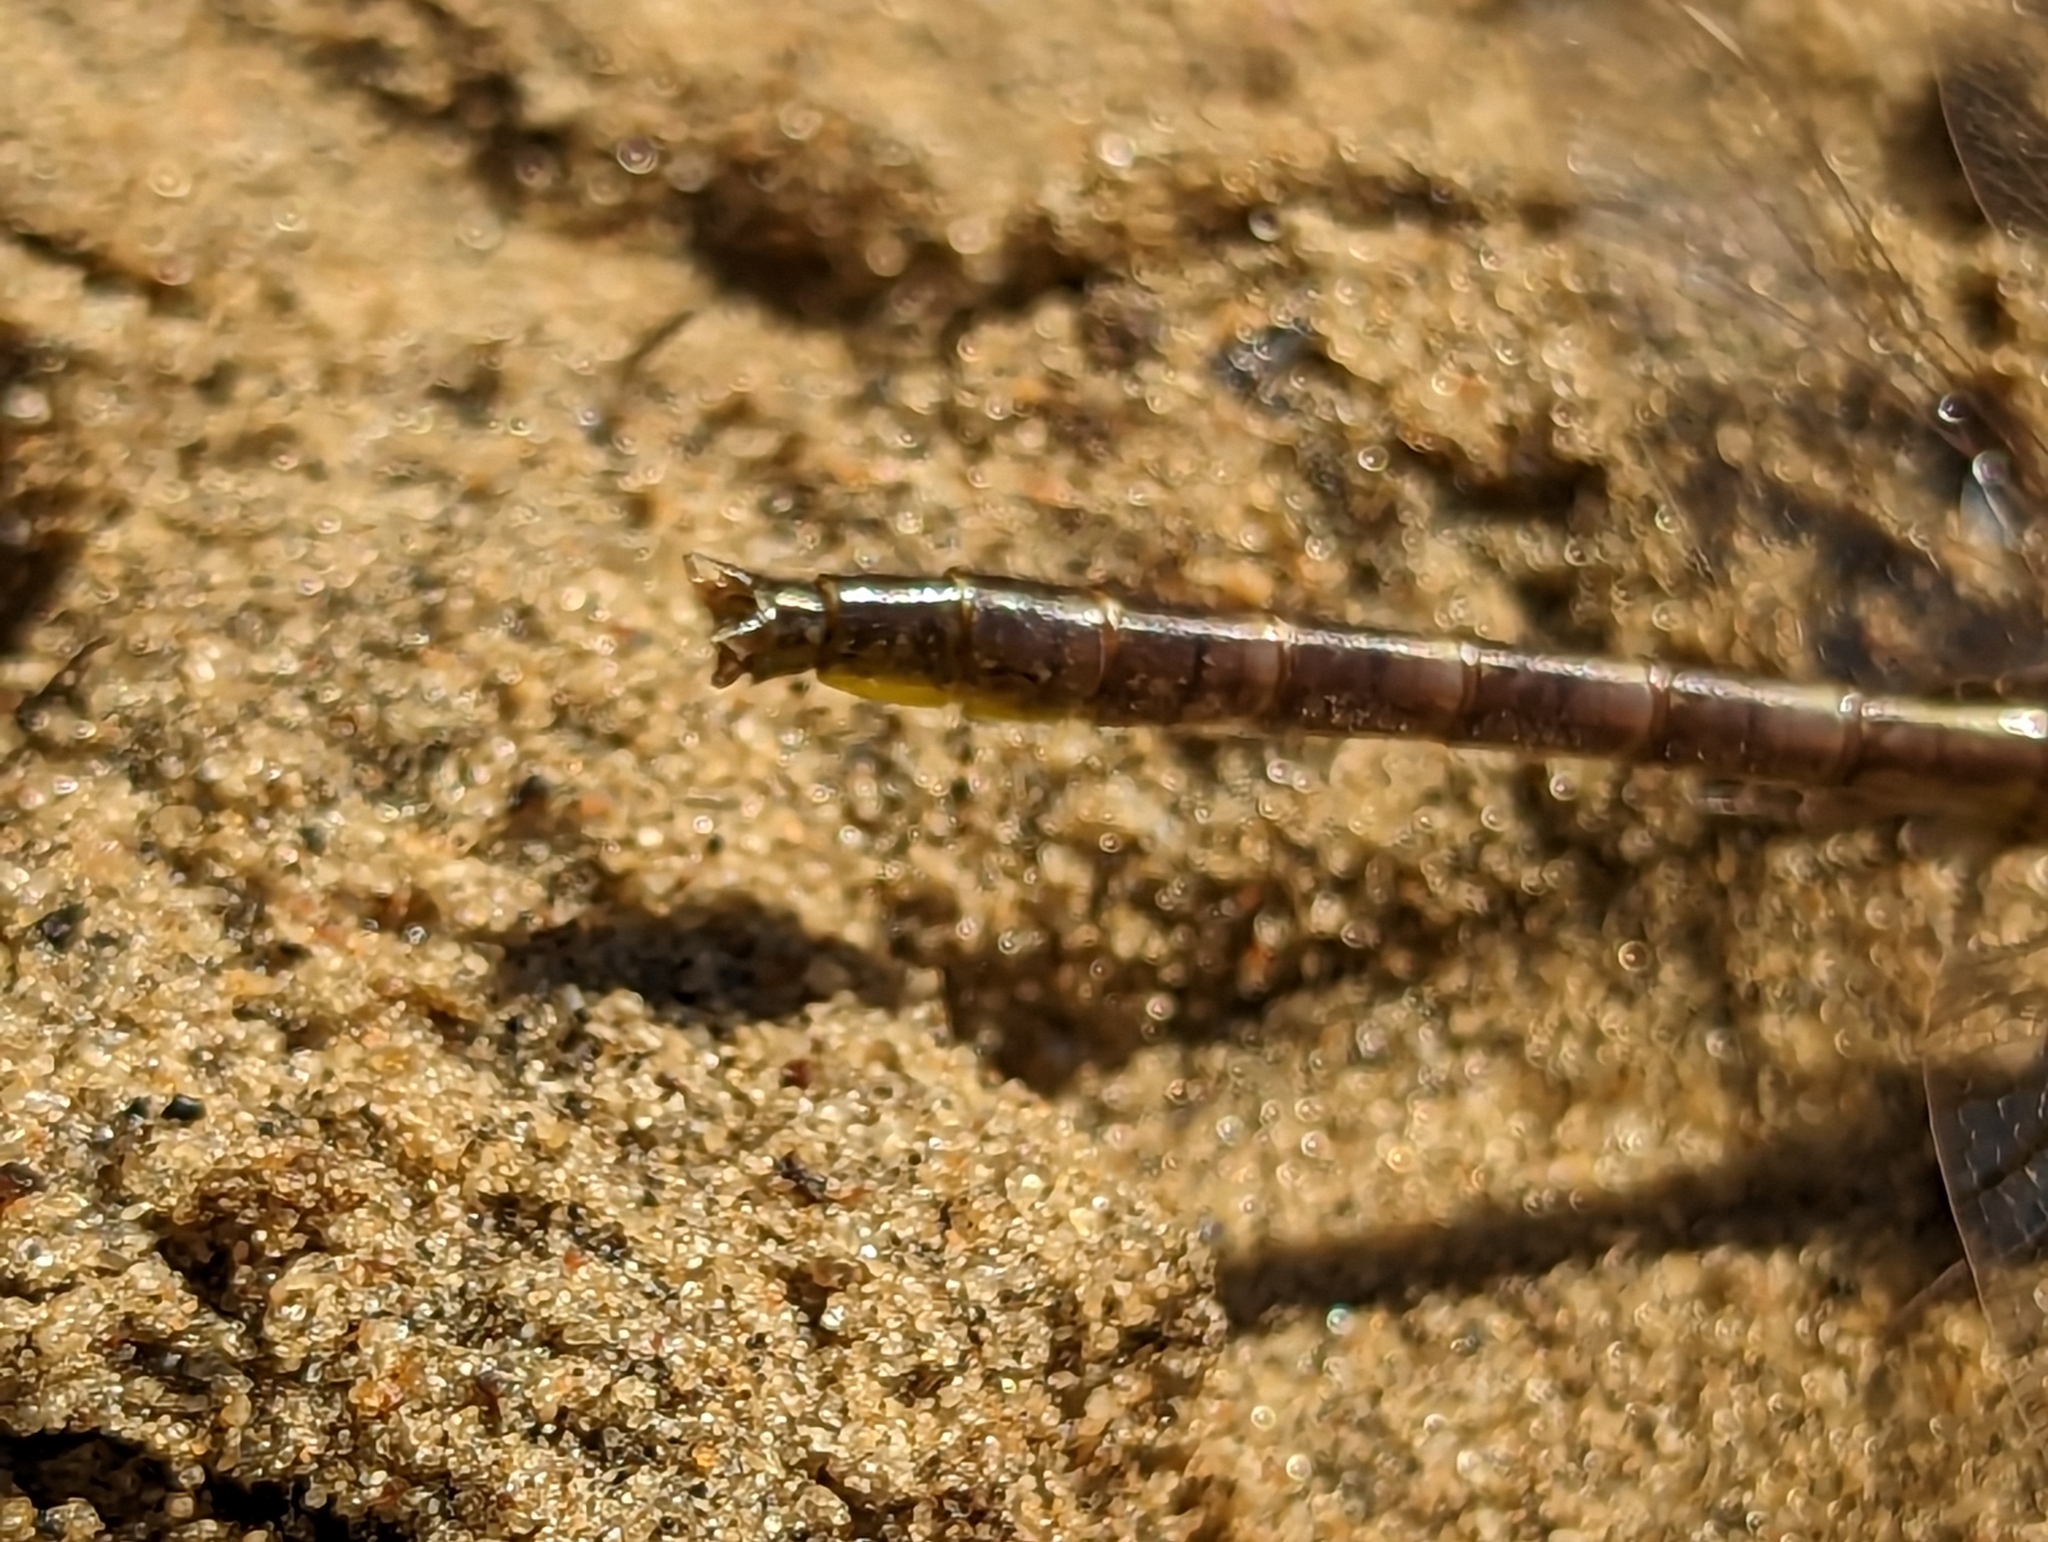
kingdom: Animalia
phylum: Arthropoda
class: Insecta
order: Odonata
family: Gomphidae
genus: Phanogomphus
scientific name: Phanogomphus borealis
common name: Beaverpond clubtail
